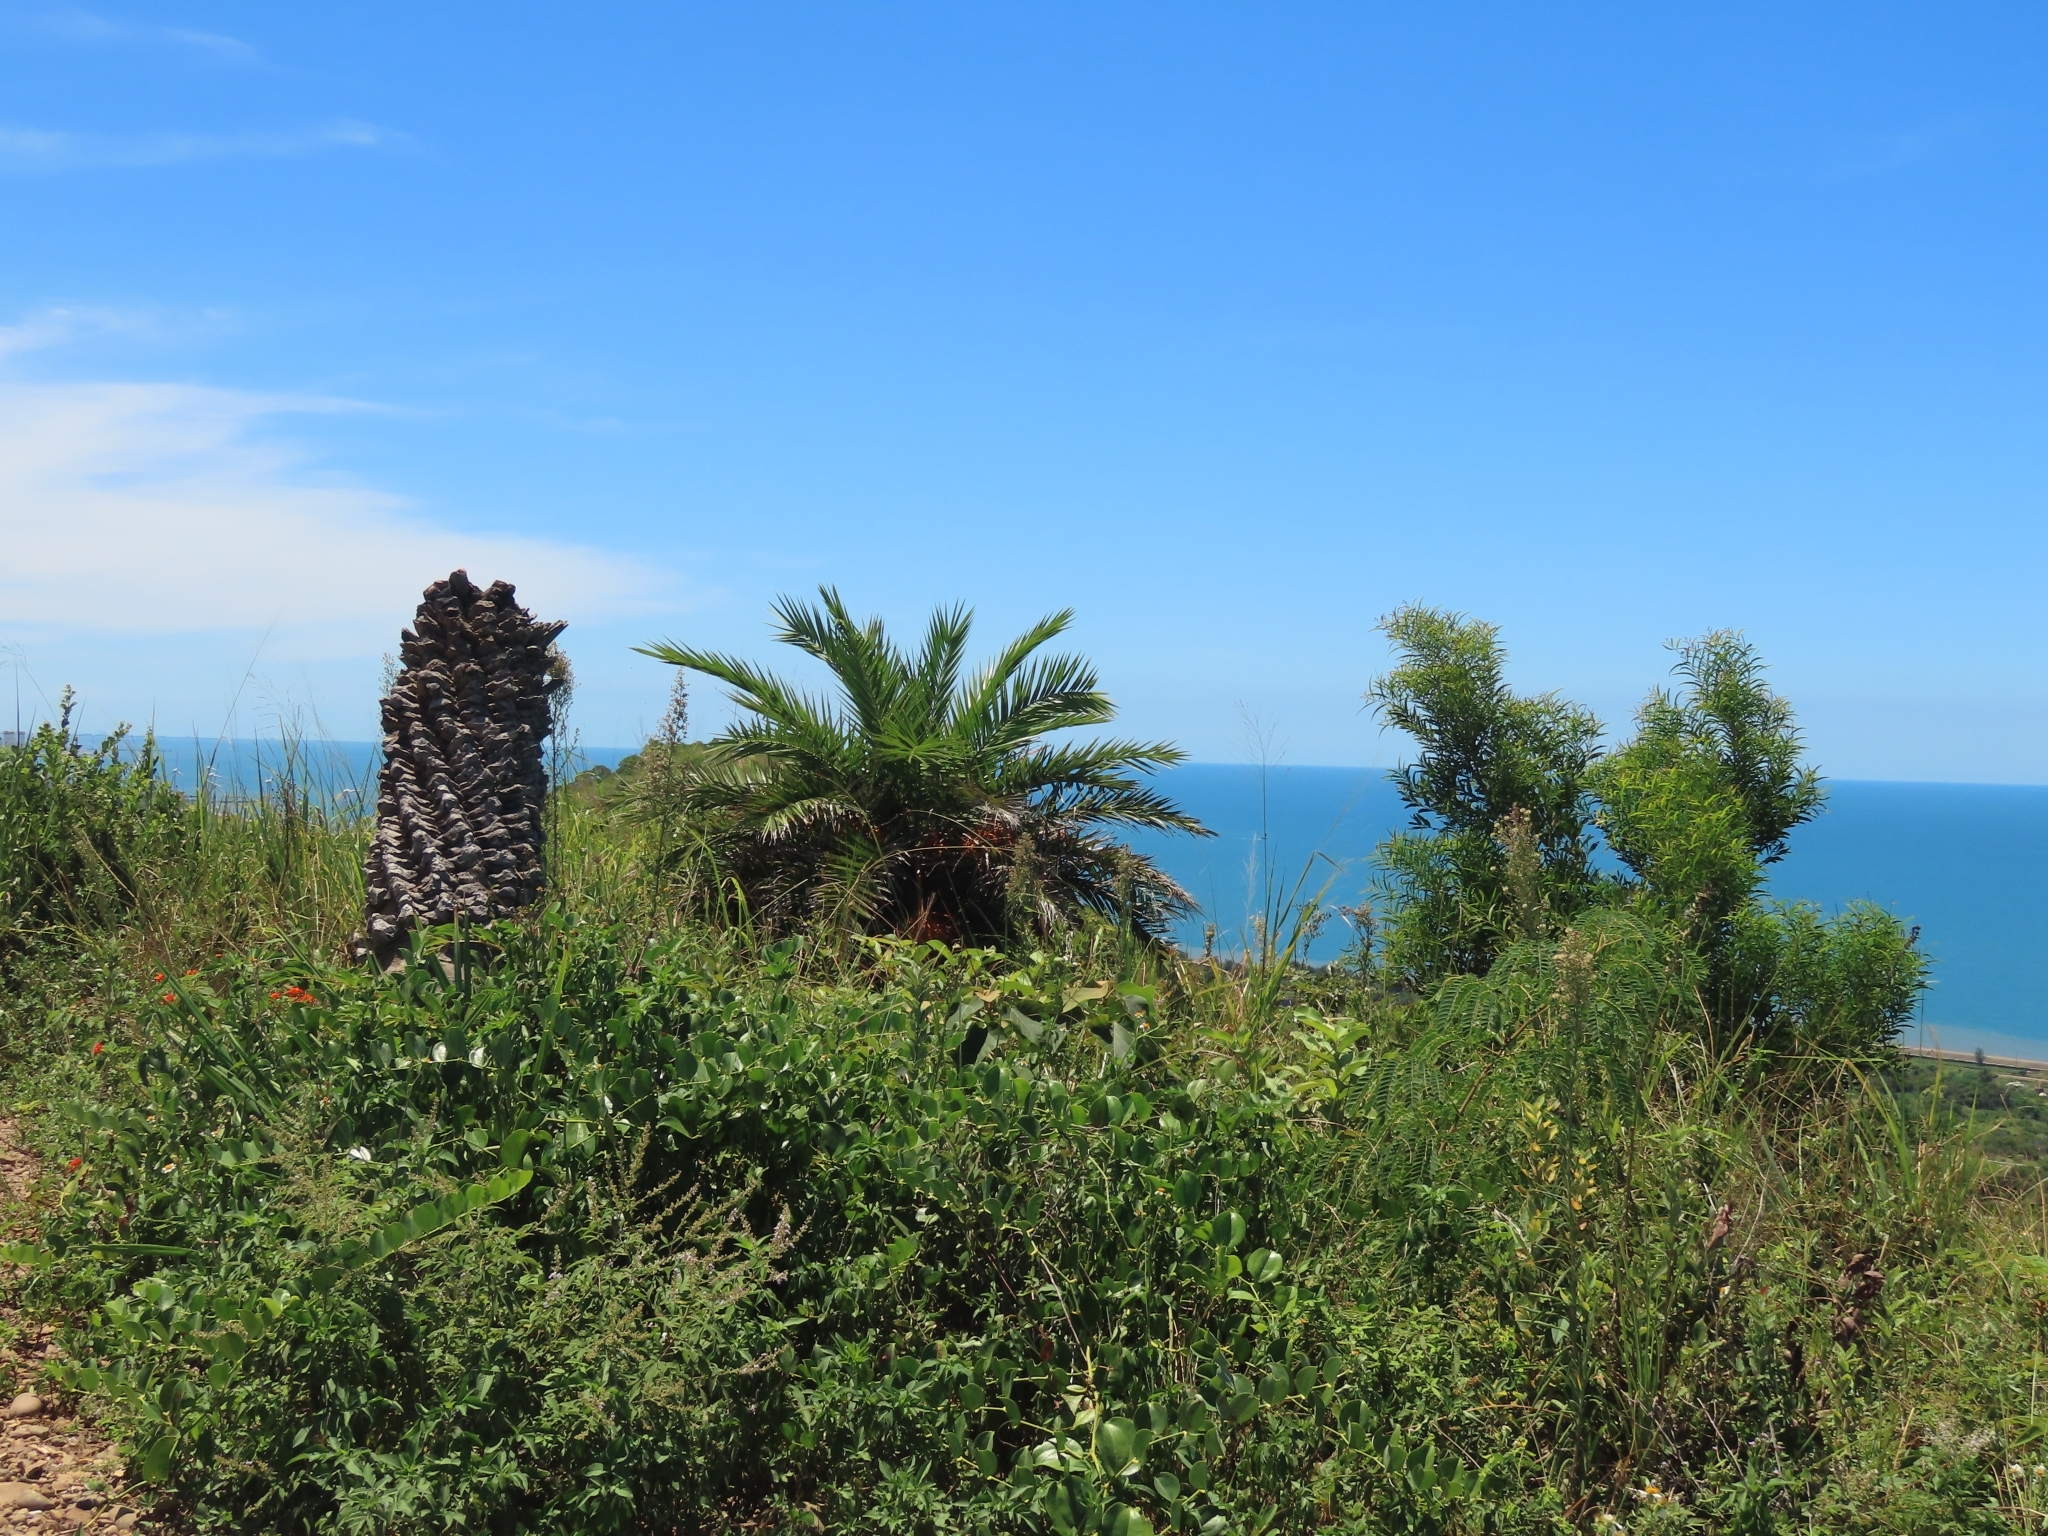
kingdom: Plantae
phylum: Tracheophyta
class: Liliopsida
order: Arecales
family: Arecaceae
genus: Phoenix
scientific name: Phoenix loureiroi
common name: Loureiro's palm
